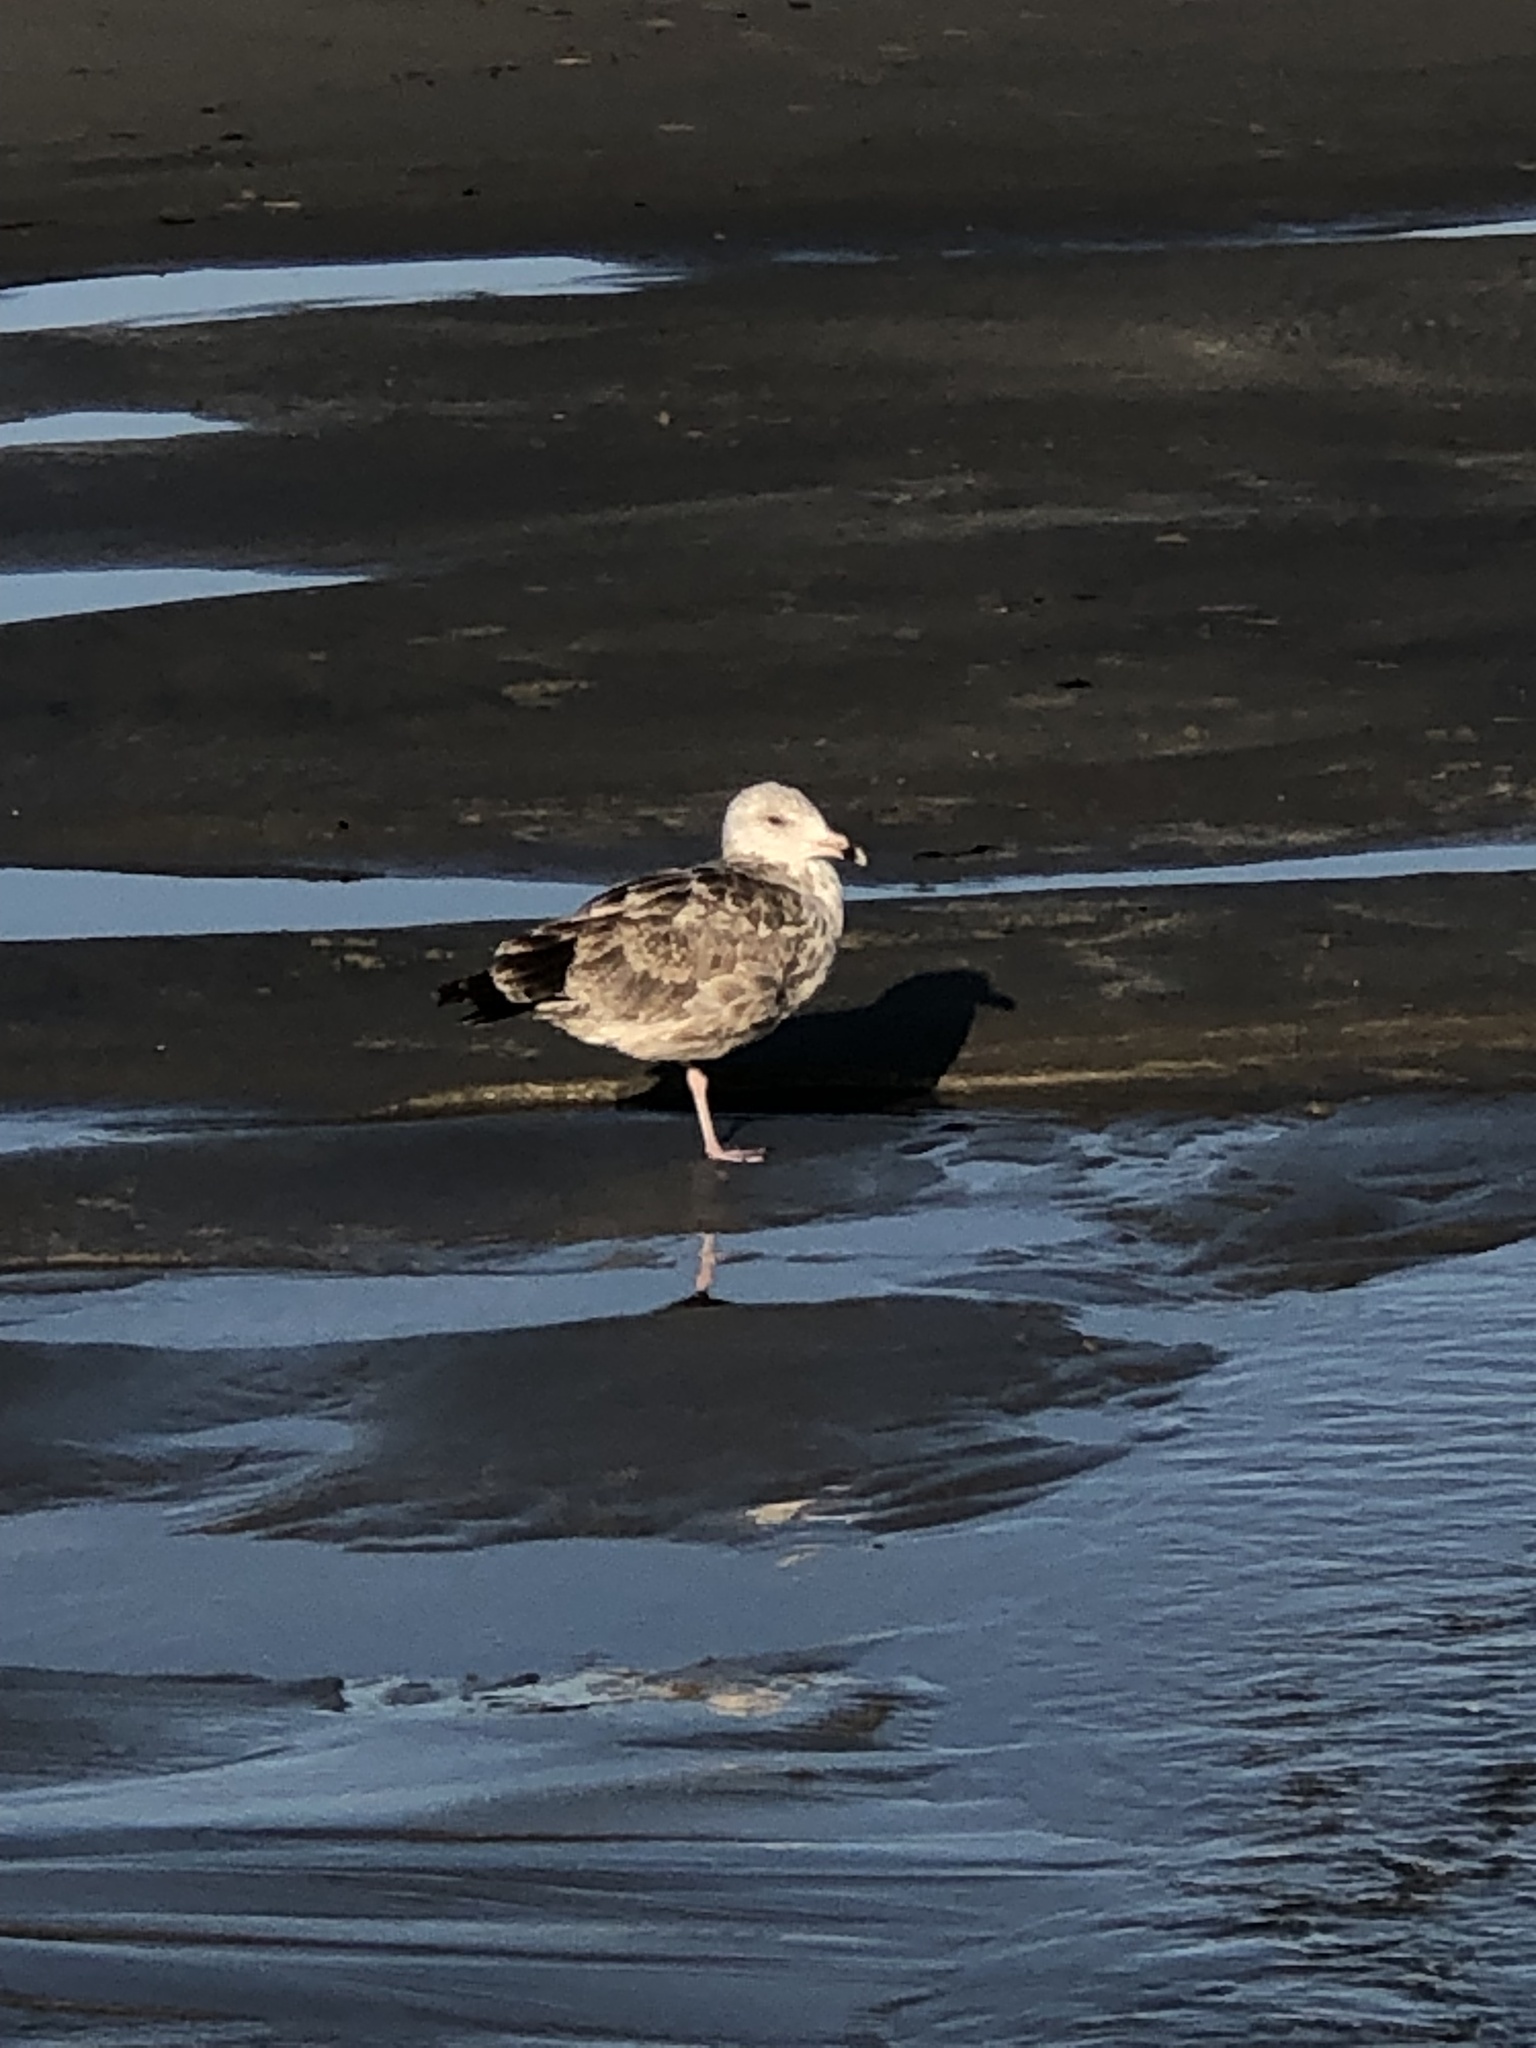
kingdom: Animalia
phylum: Chordata
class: Aves
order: Charadriiformes
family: Laridae
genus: Larus
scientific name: Larus argentatus
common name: Herring gull
